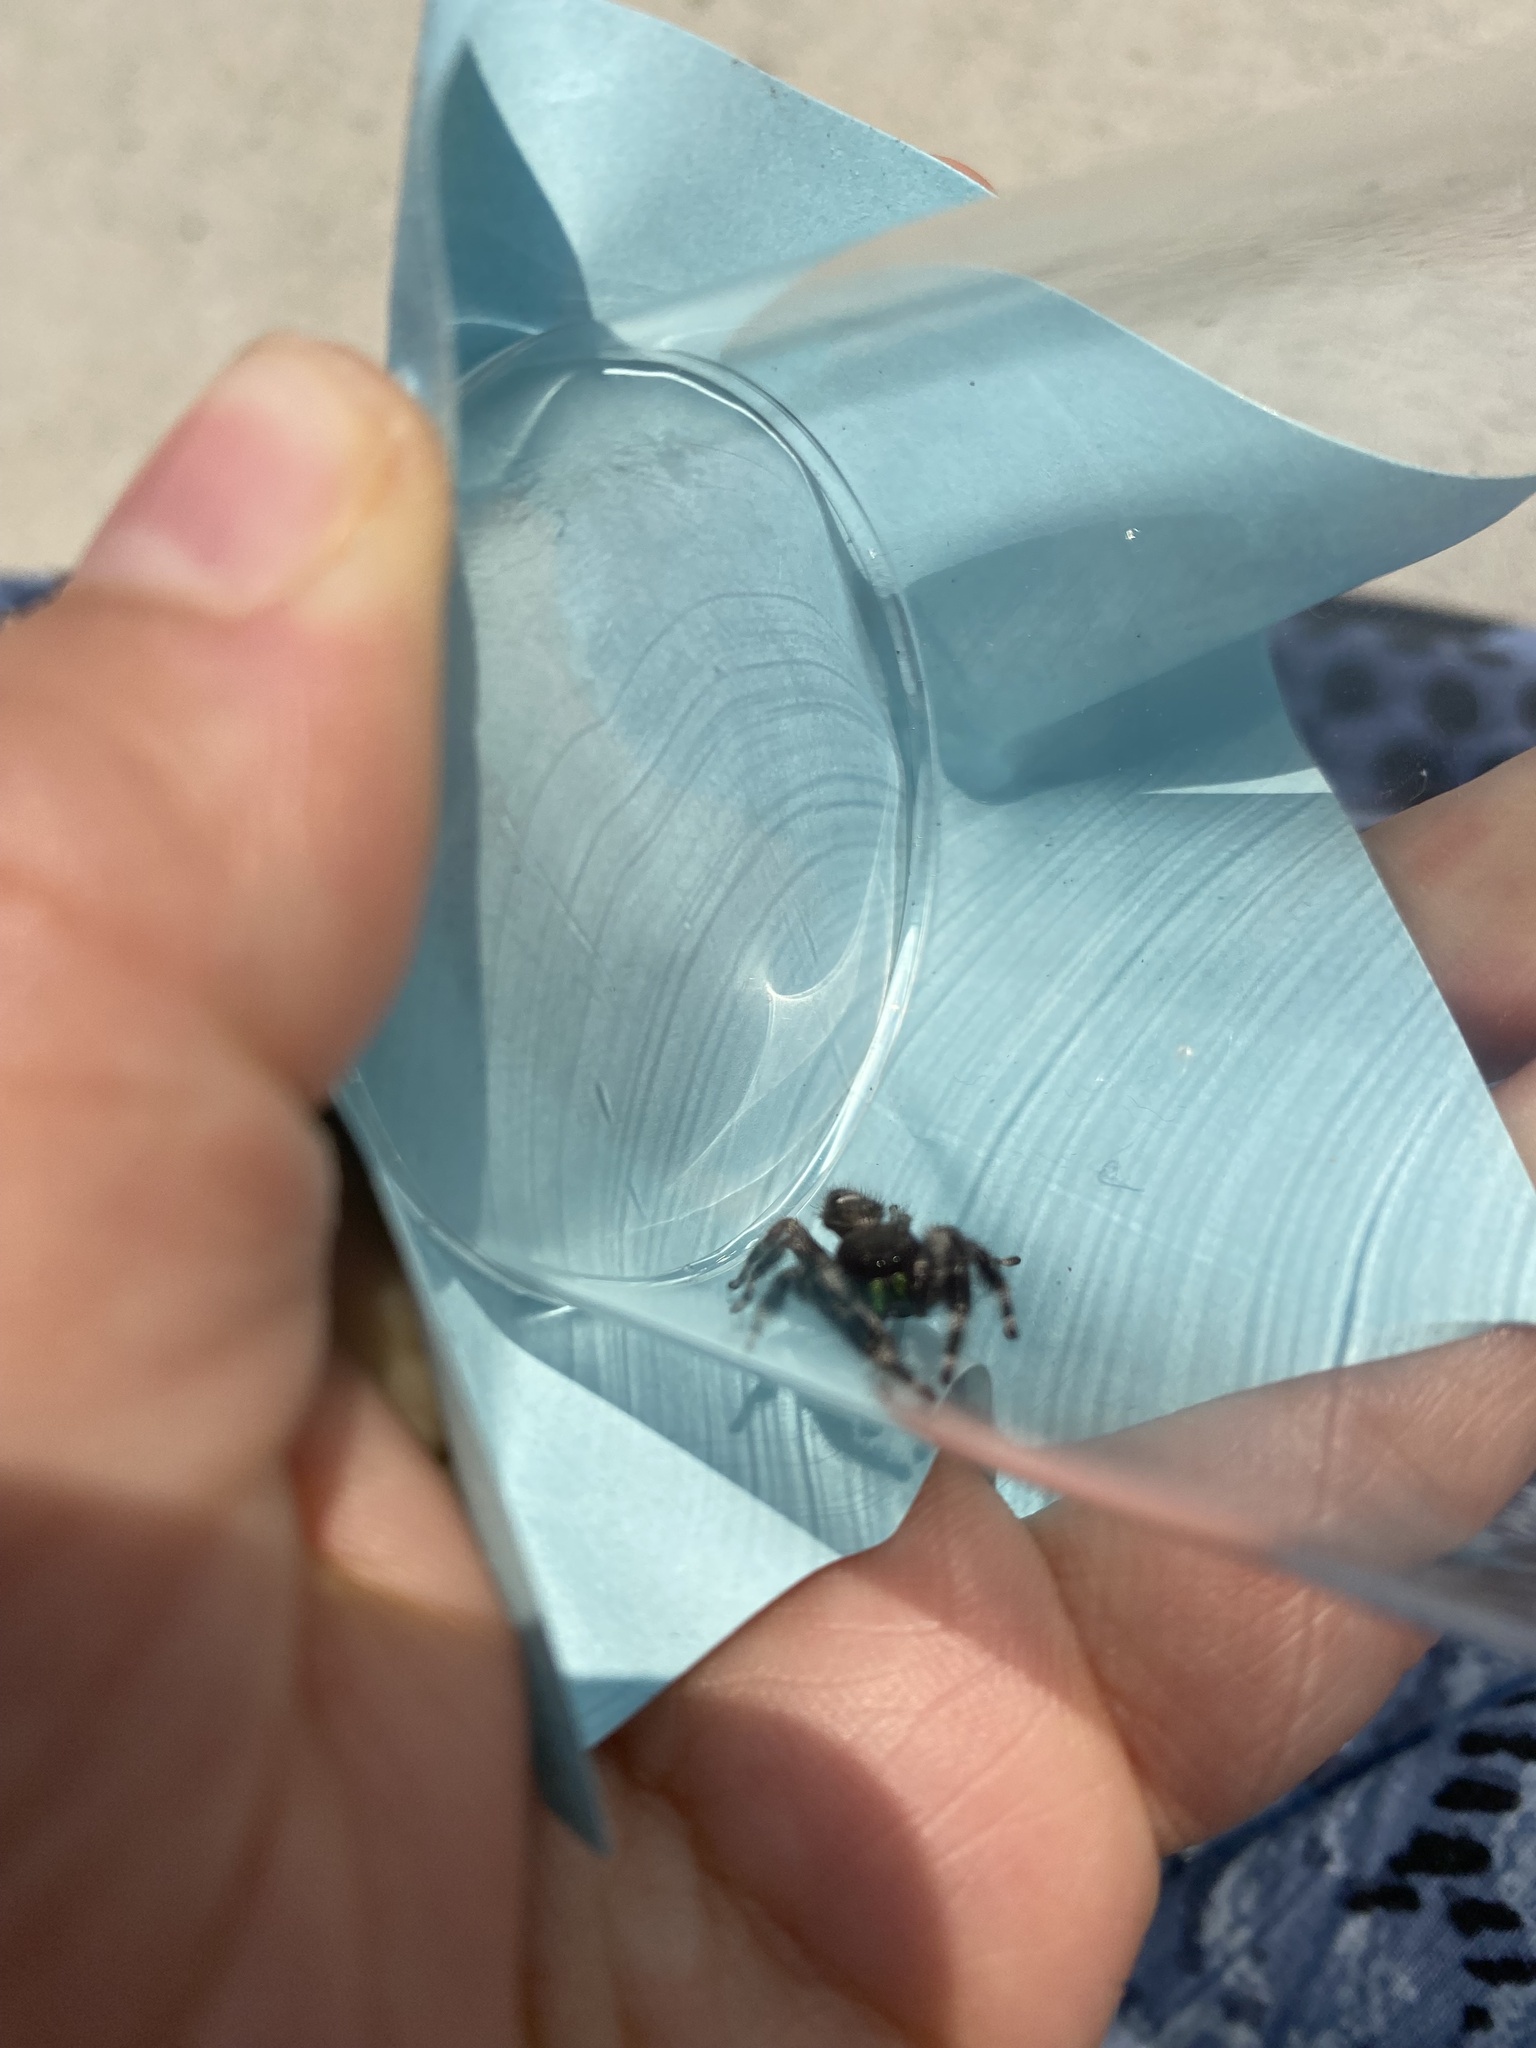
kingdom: Animalia
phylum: Arthropoda
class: Arachnida
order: Araneae
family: Salticidae
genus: Phidippus
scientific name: Phidippus audax
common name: Bold jumper
